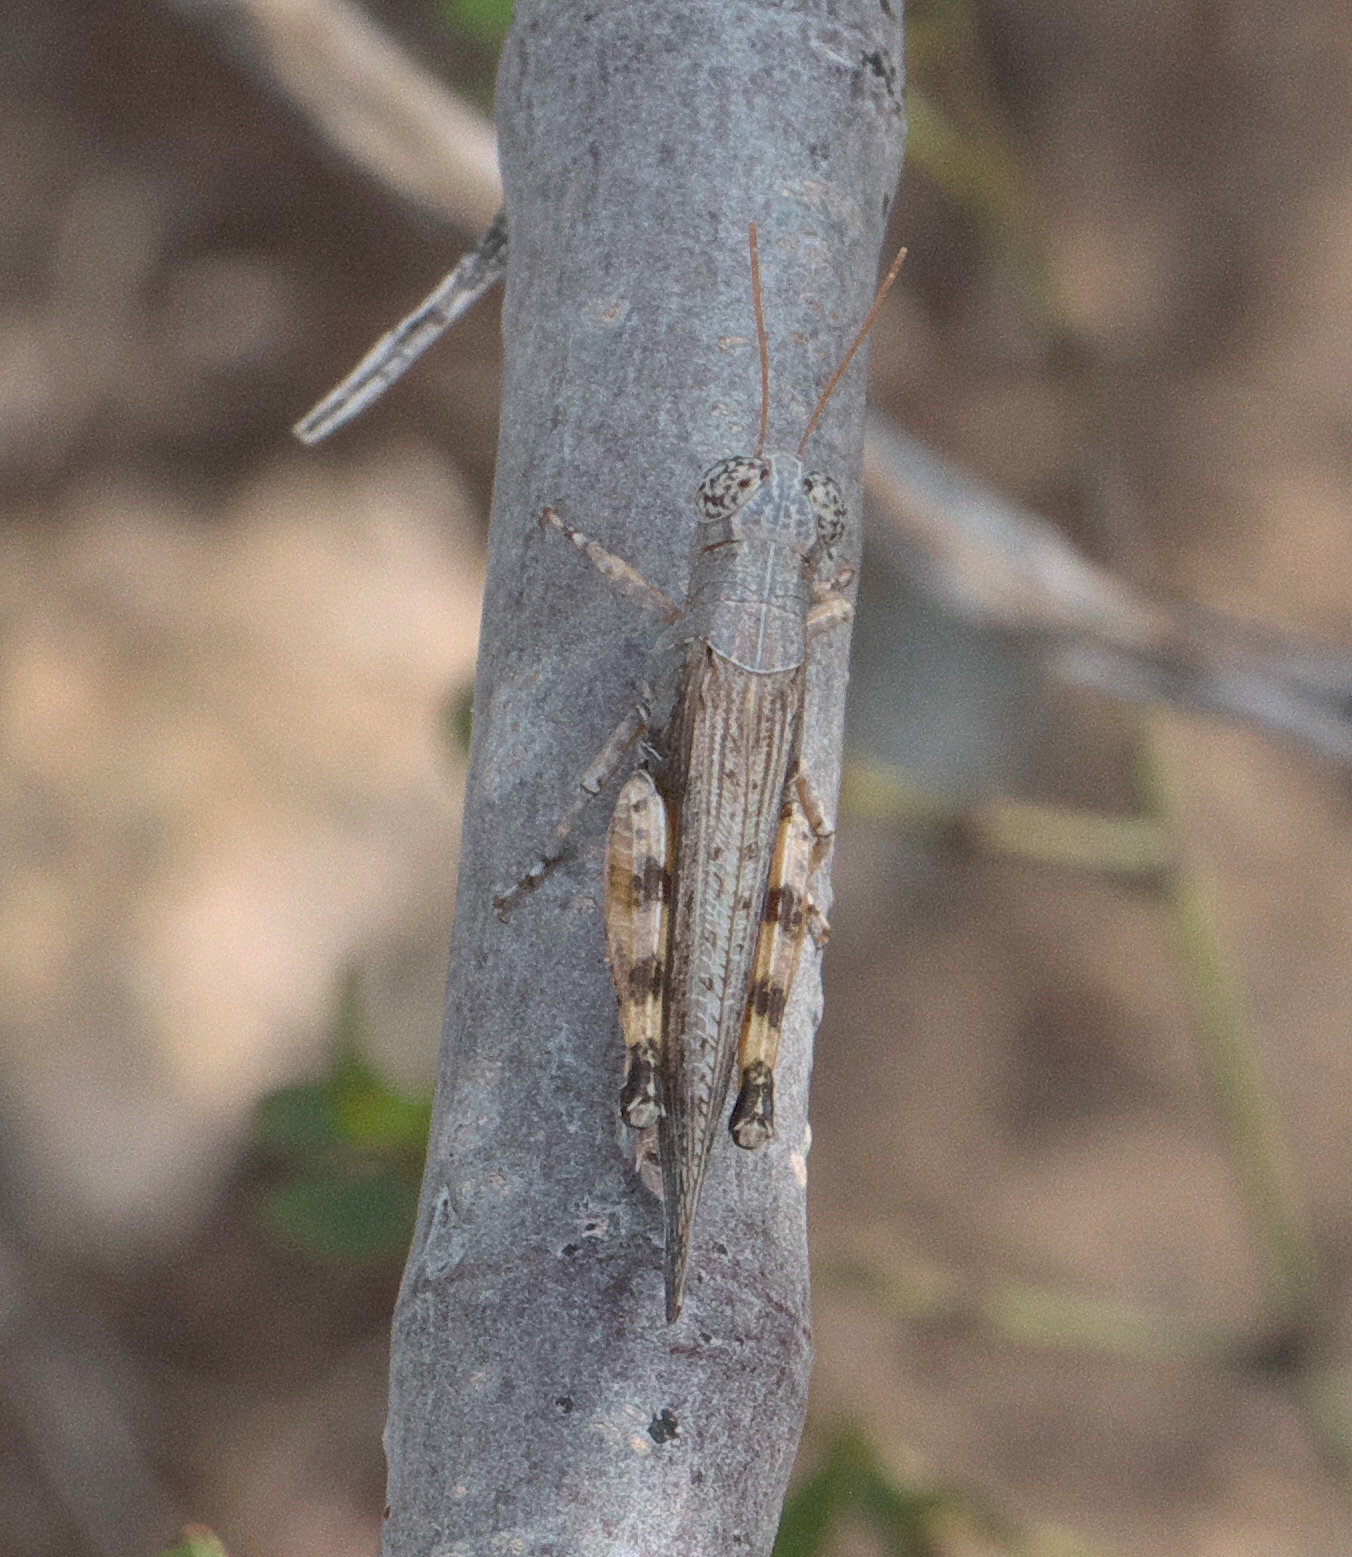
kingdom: Animalia
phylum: Arthropoda
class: Insecta
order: Orthoptera
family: Acrididae
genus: Ligurotettix
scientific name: Ligurotettix coquilletti
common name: Desert clicker grasshopper
